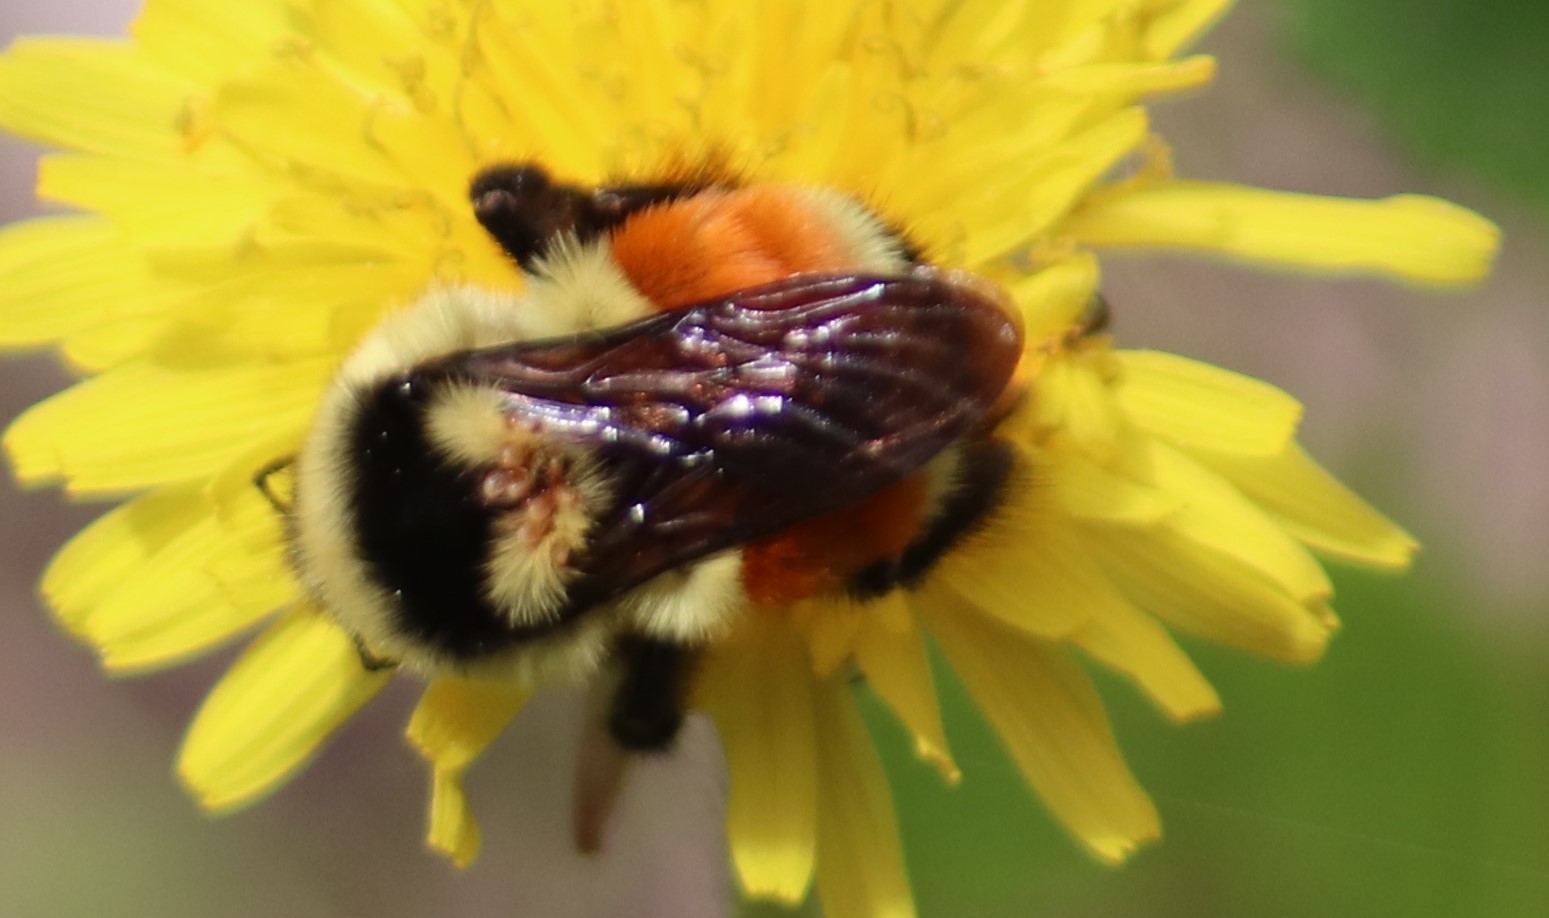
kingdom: Animalia
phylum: Arthropoda
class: Insecta
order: Hymenoptera
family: Apidae
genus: Bombus
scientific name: Bombus ternarius
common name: Tri-colored bumble bee
